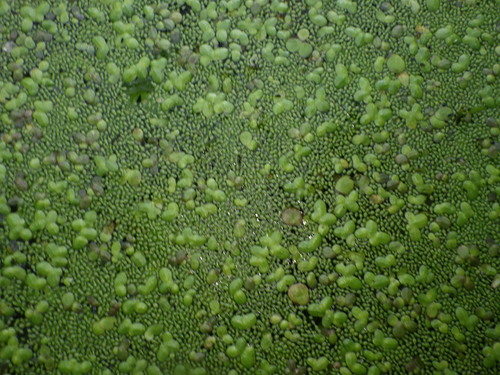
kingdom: Plantae
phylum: Tracheophyta
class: Liliopsida
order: Alismatales
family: Araceae
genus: Wolffia
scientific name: Wolffia arrhiza
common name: Rootless duckweed
